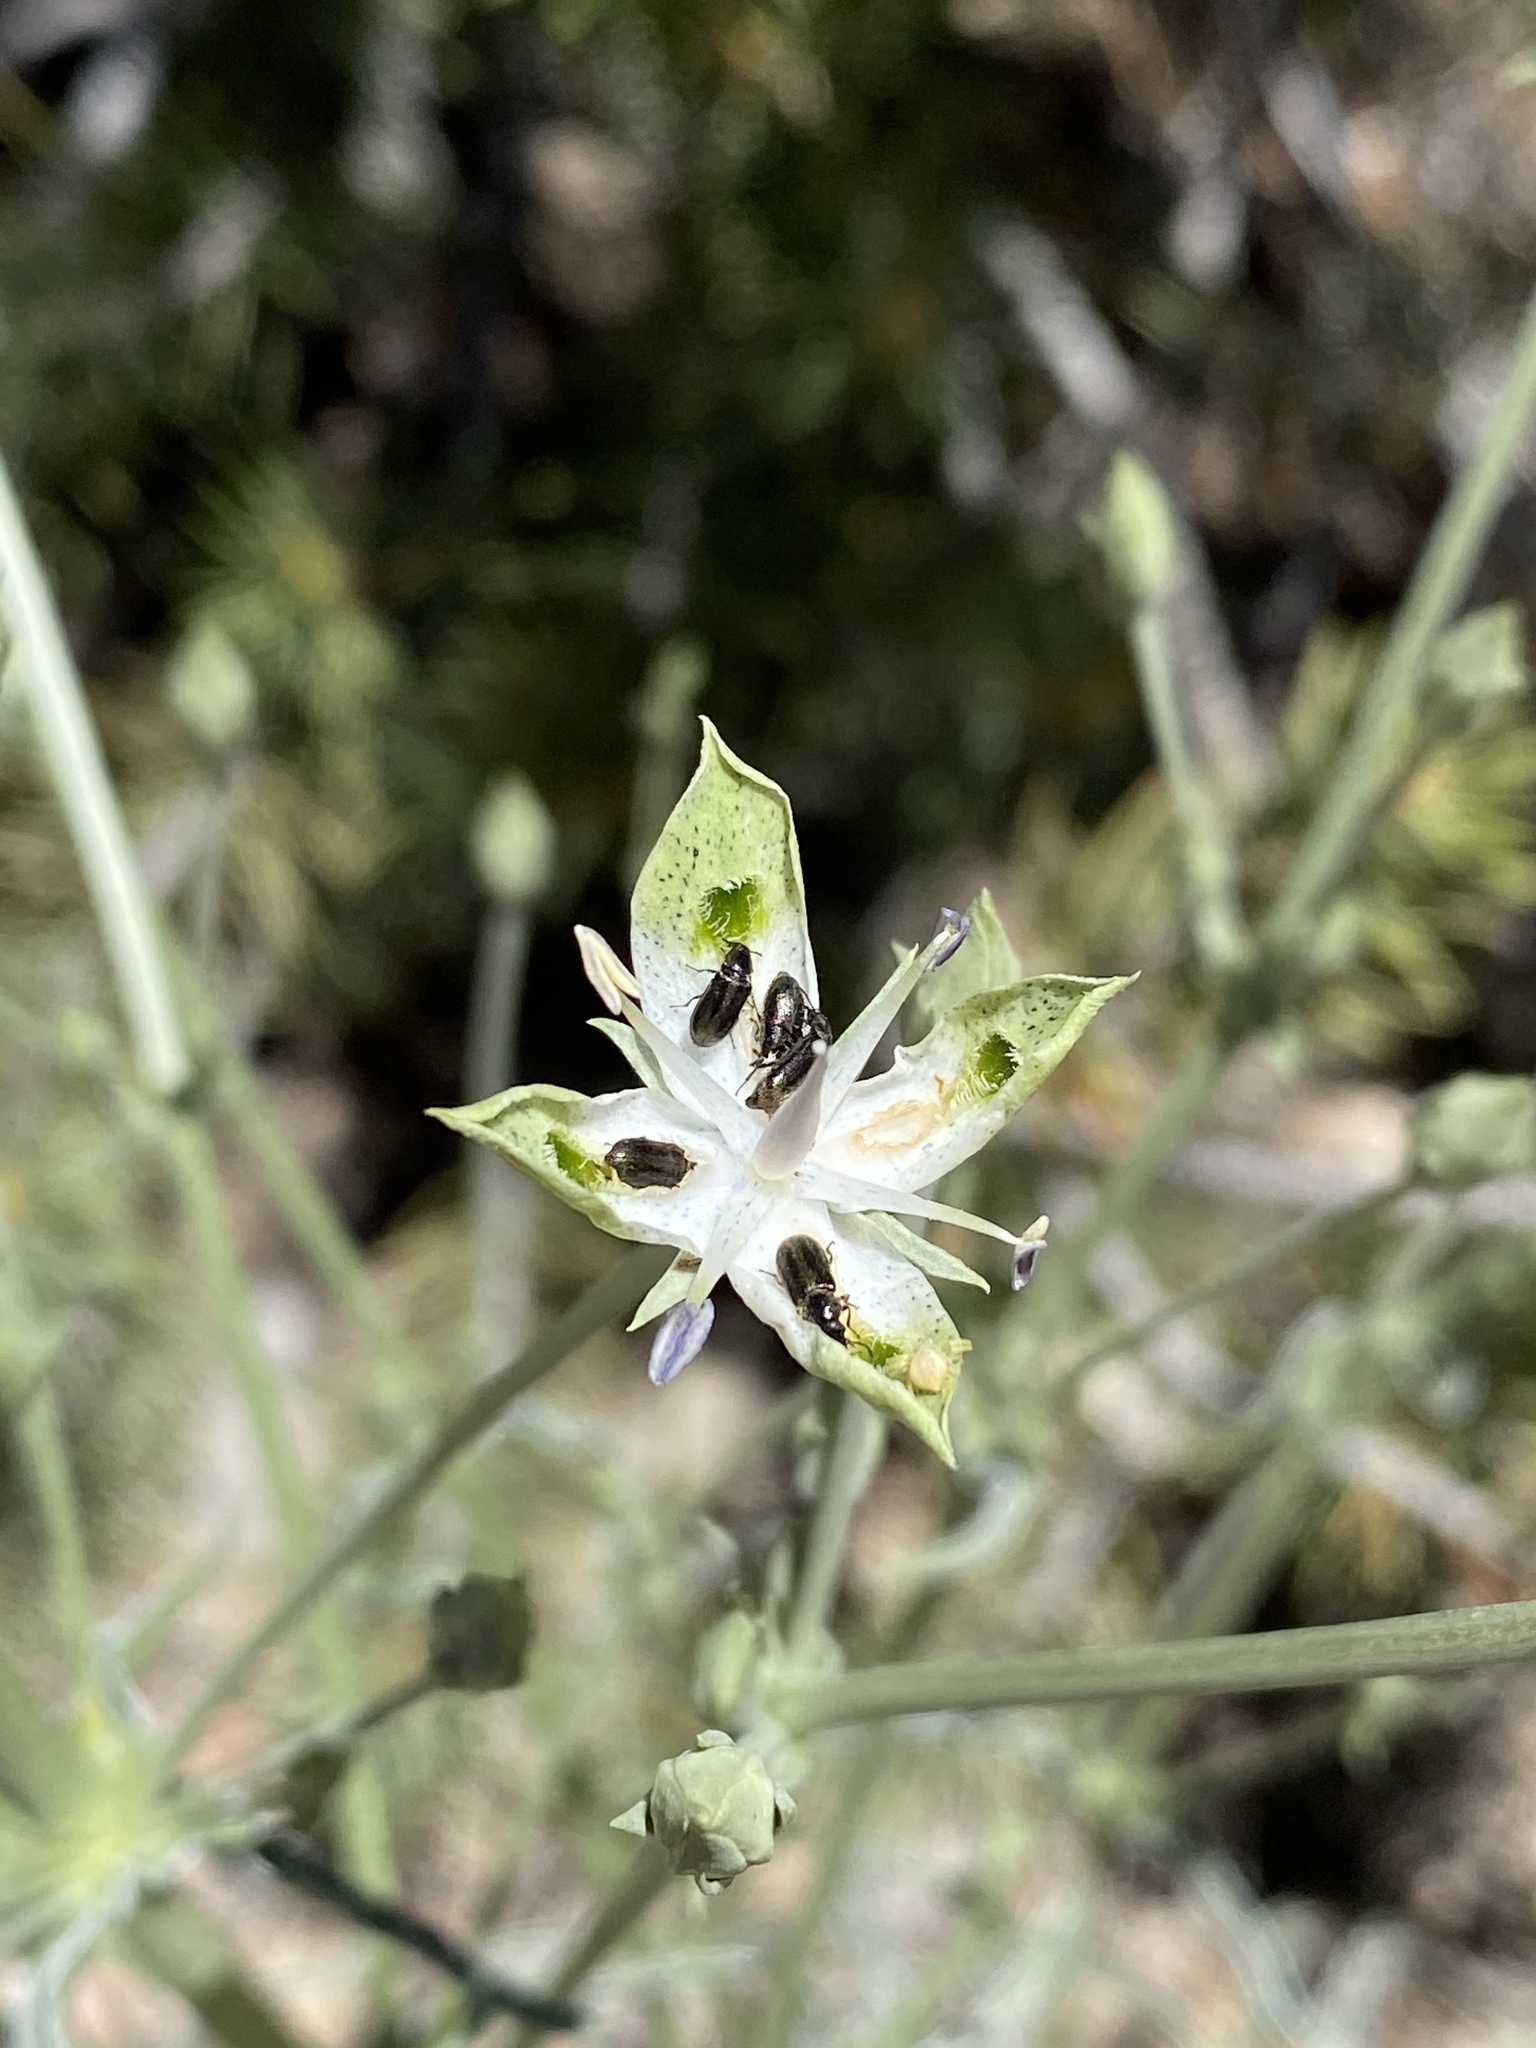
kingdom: Plantae
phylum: Tracheophyta
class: Magnoliopsida
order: Gentianales
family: Gentianaceae
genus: Frasera
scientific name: Frasera albomarginata
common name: Desert frasera
